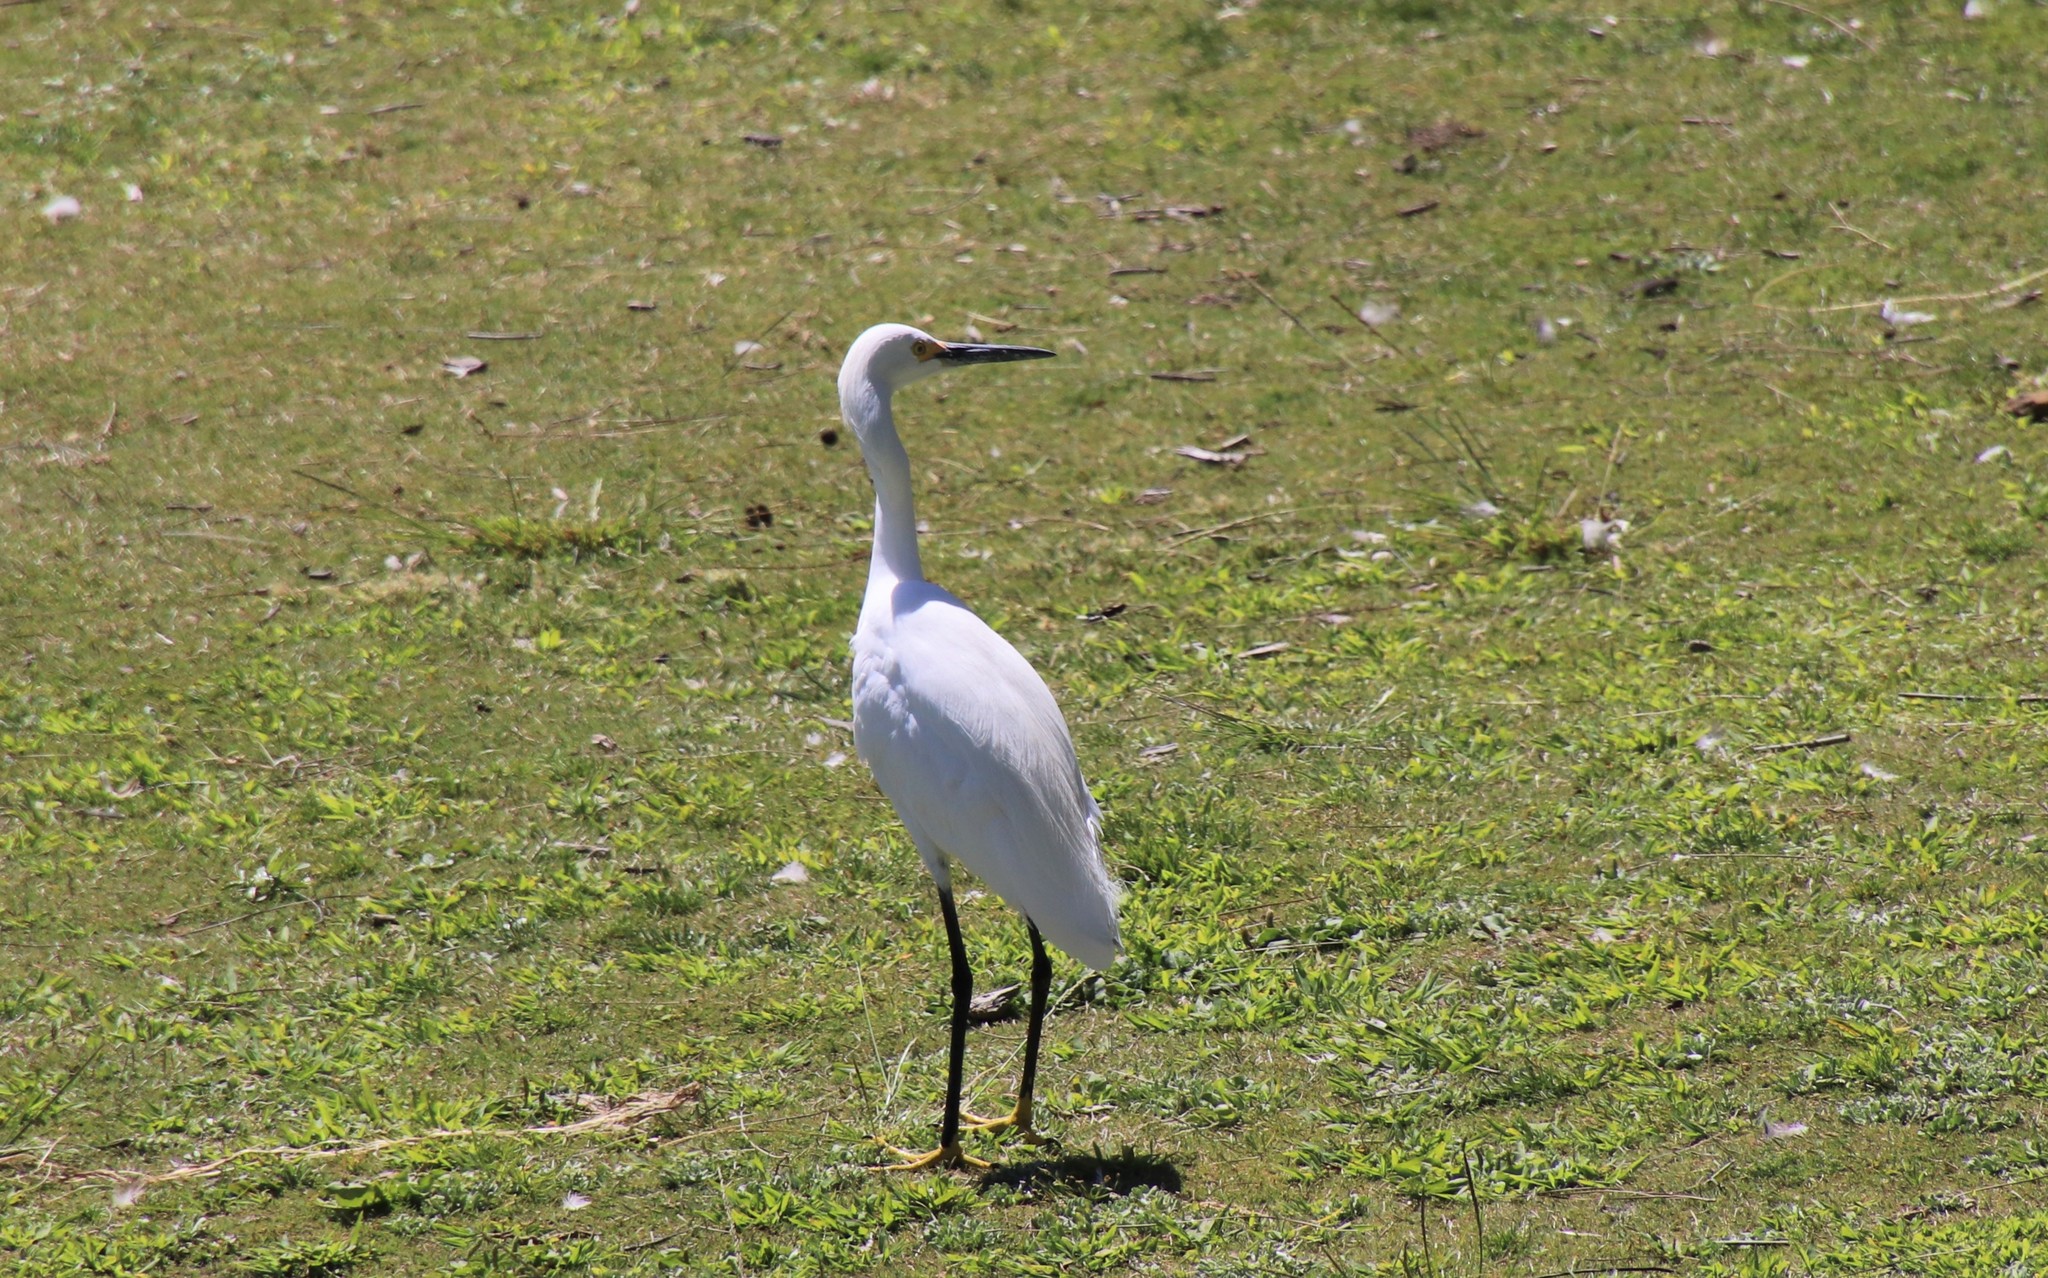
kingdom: Animalia
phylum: Chordata
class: Aves
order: Pelecaniformes
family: Ardeidae
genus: Egretta
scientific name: Egretta thula
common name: Snowy egret
